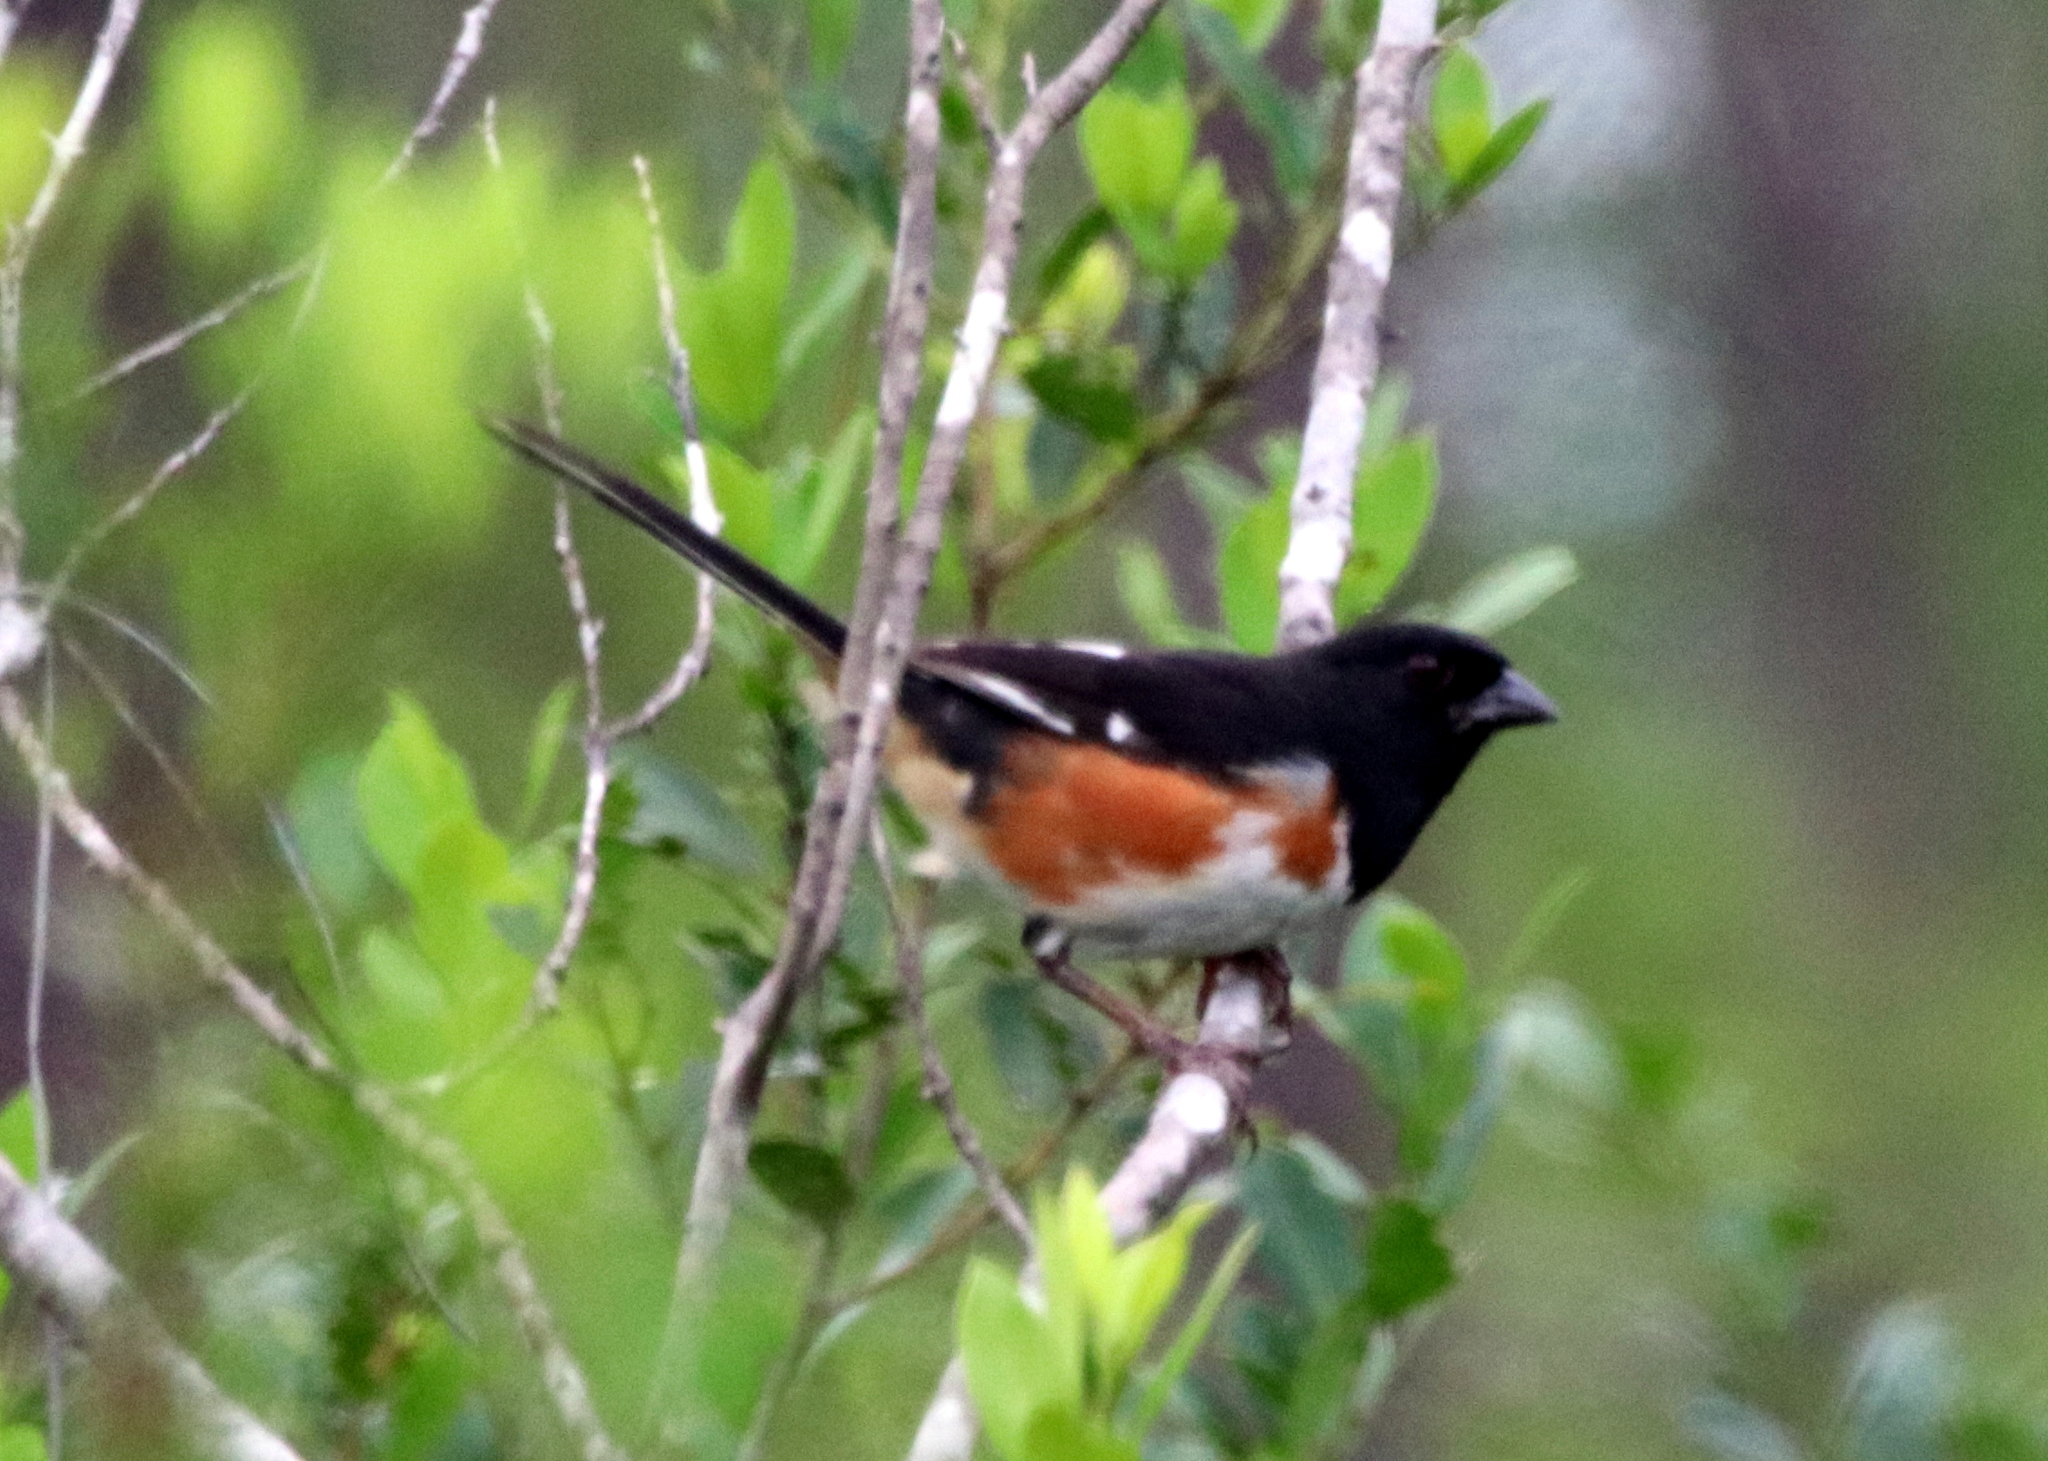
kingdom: Animalia
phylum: Chordata
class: Aves
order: Passeriformes
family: Passerellidae
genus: Pipilo
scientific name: Pipilo erythrophthalmus
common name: Eastern towhee
